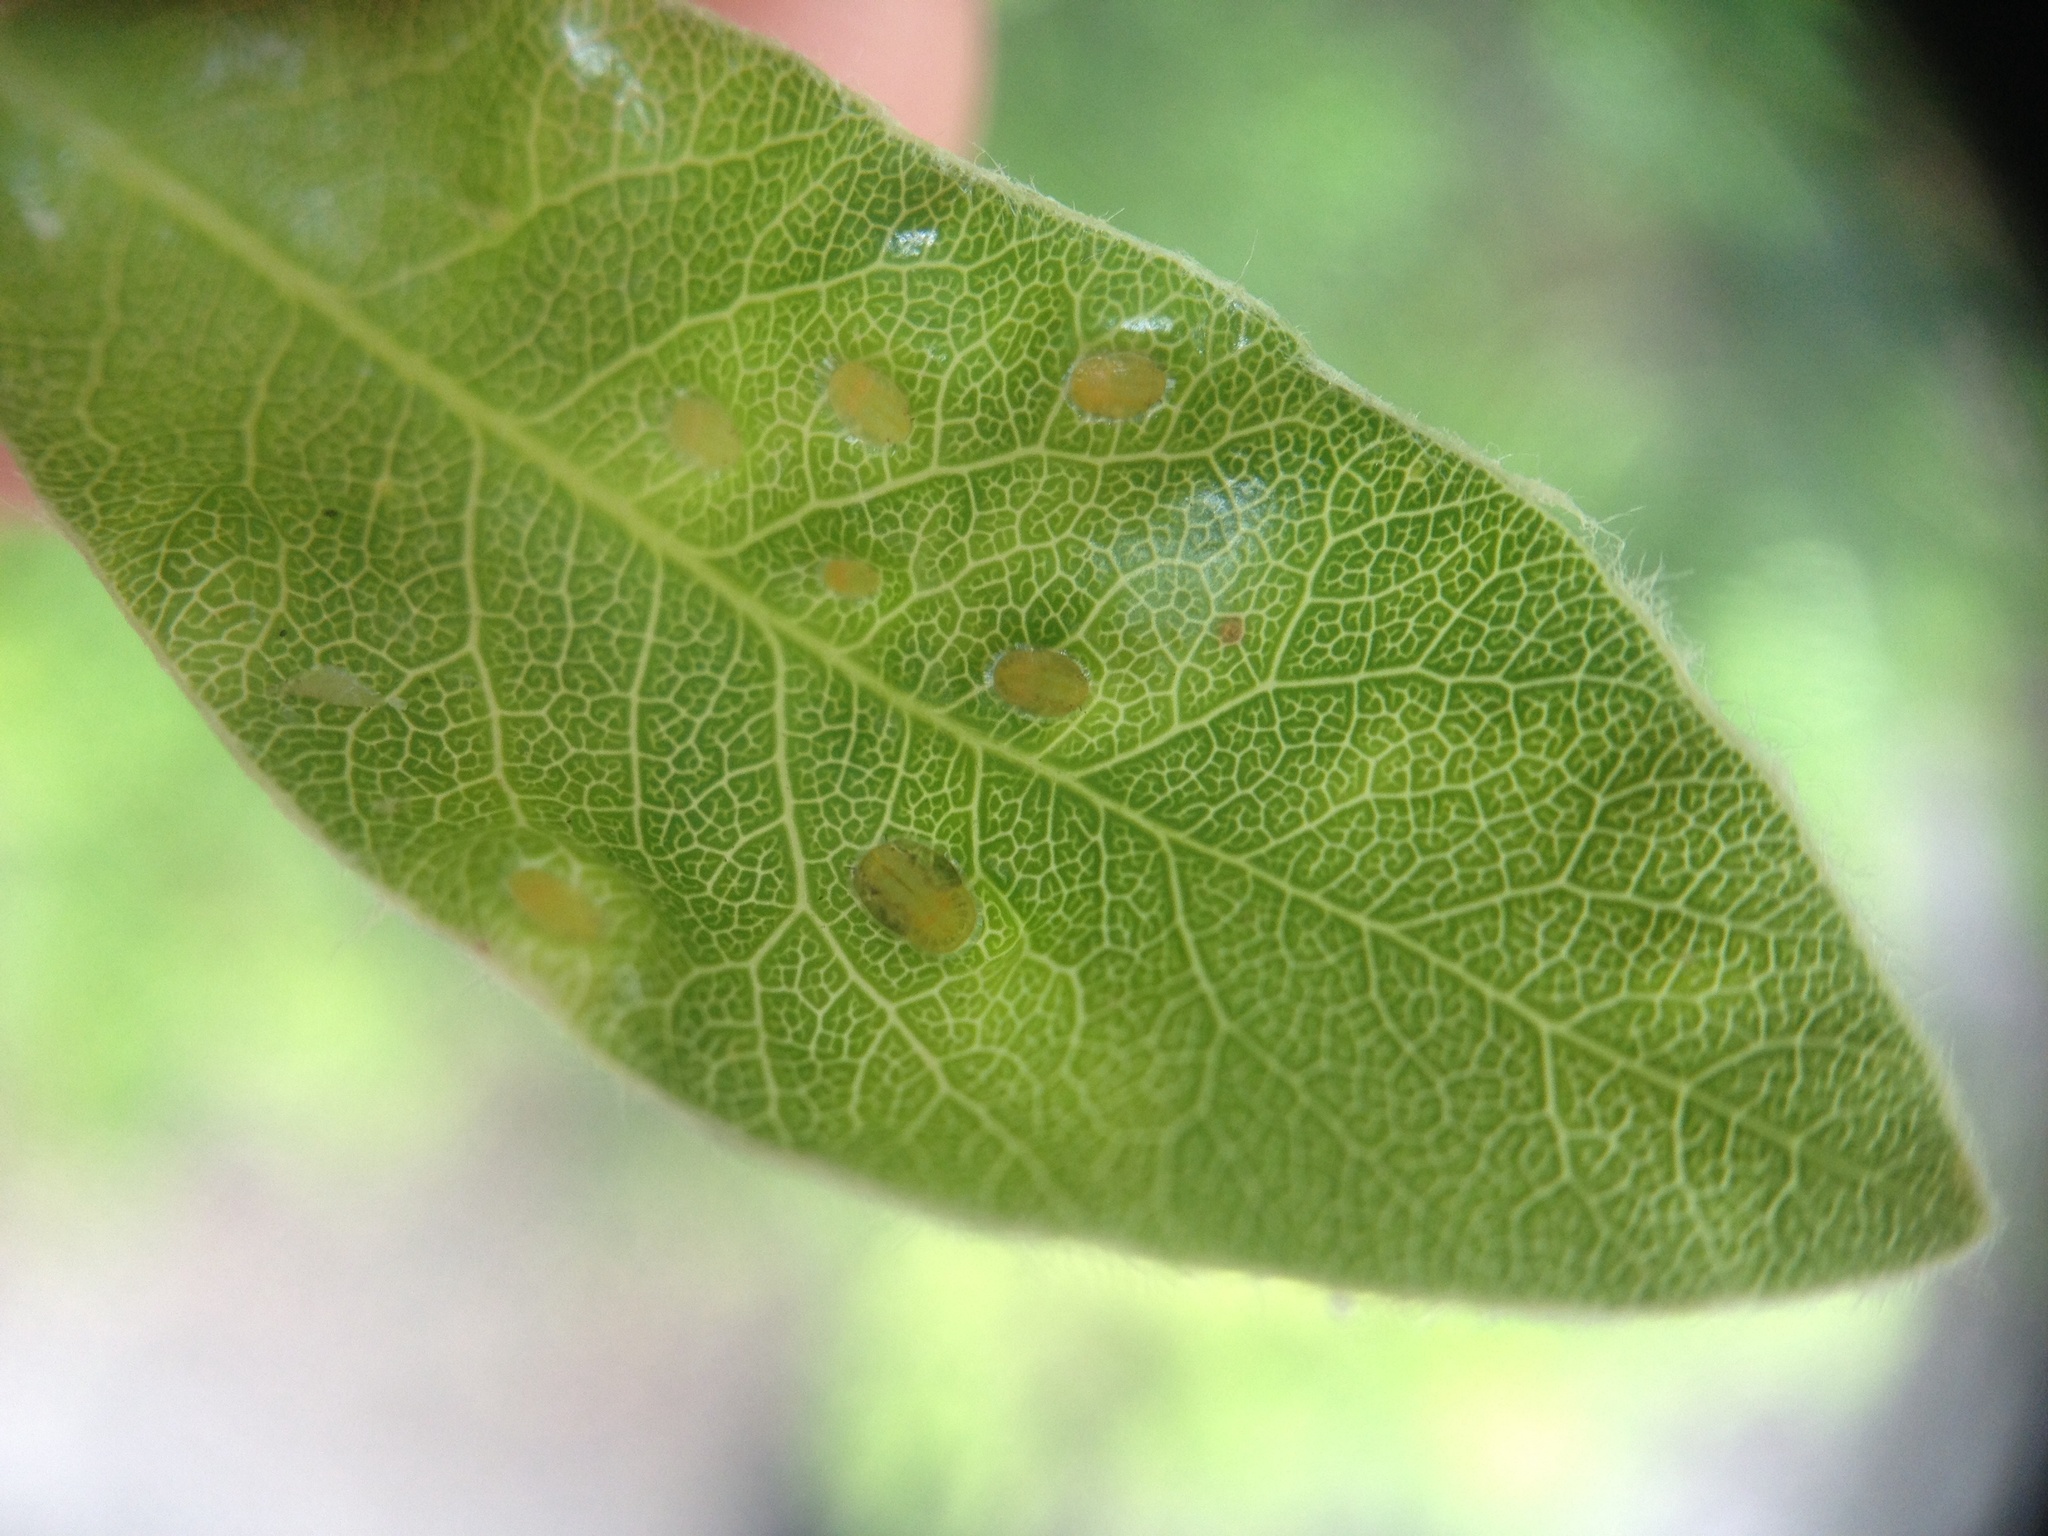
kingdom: Animalia
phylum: Arthropoda
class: Insecta
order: Hemiptera
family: Triozidae
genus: Powellia
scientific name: Powellia vitreoradiata
